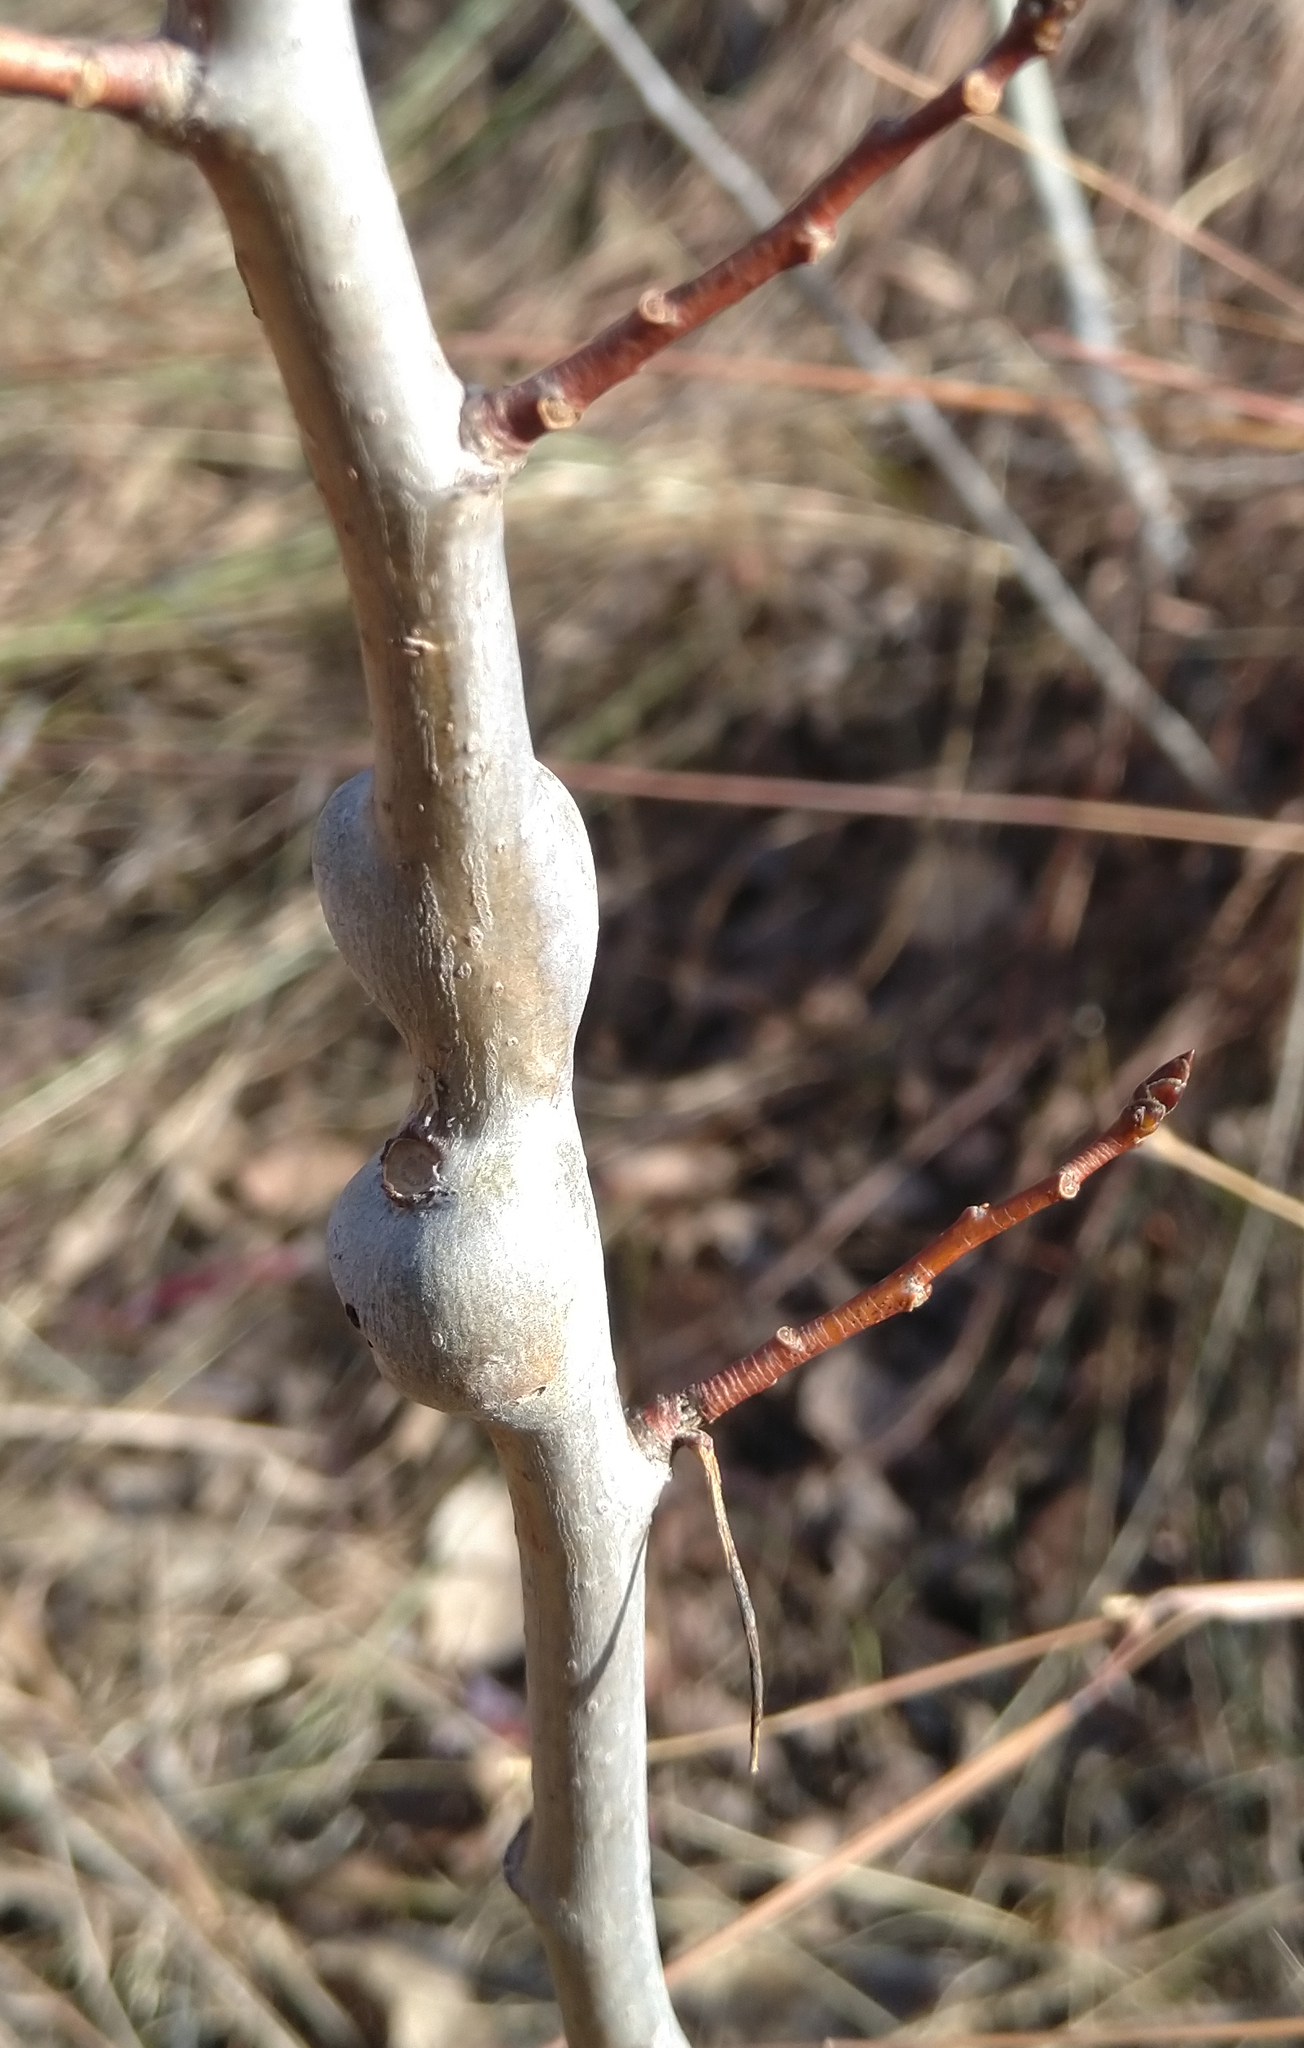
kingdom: Animalia
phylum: Arthropoda
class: Insecta
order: Diptera
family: Agromyzidae
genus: Euhexomyza
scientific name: Euhexomyza schineri
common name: Poplar twiggall fly
